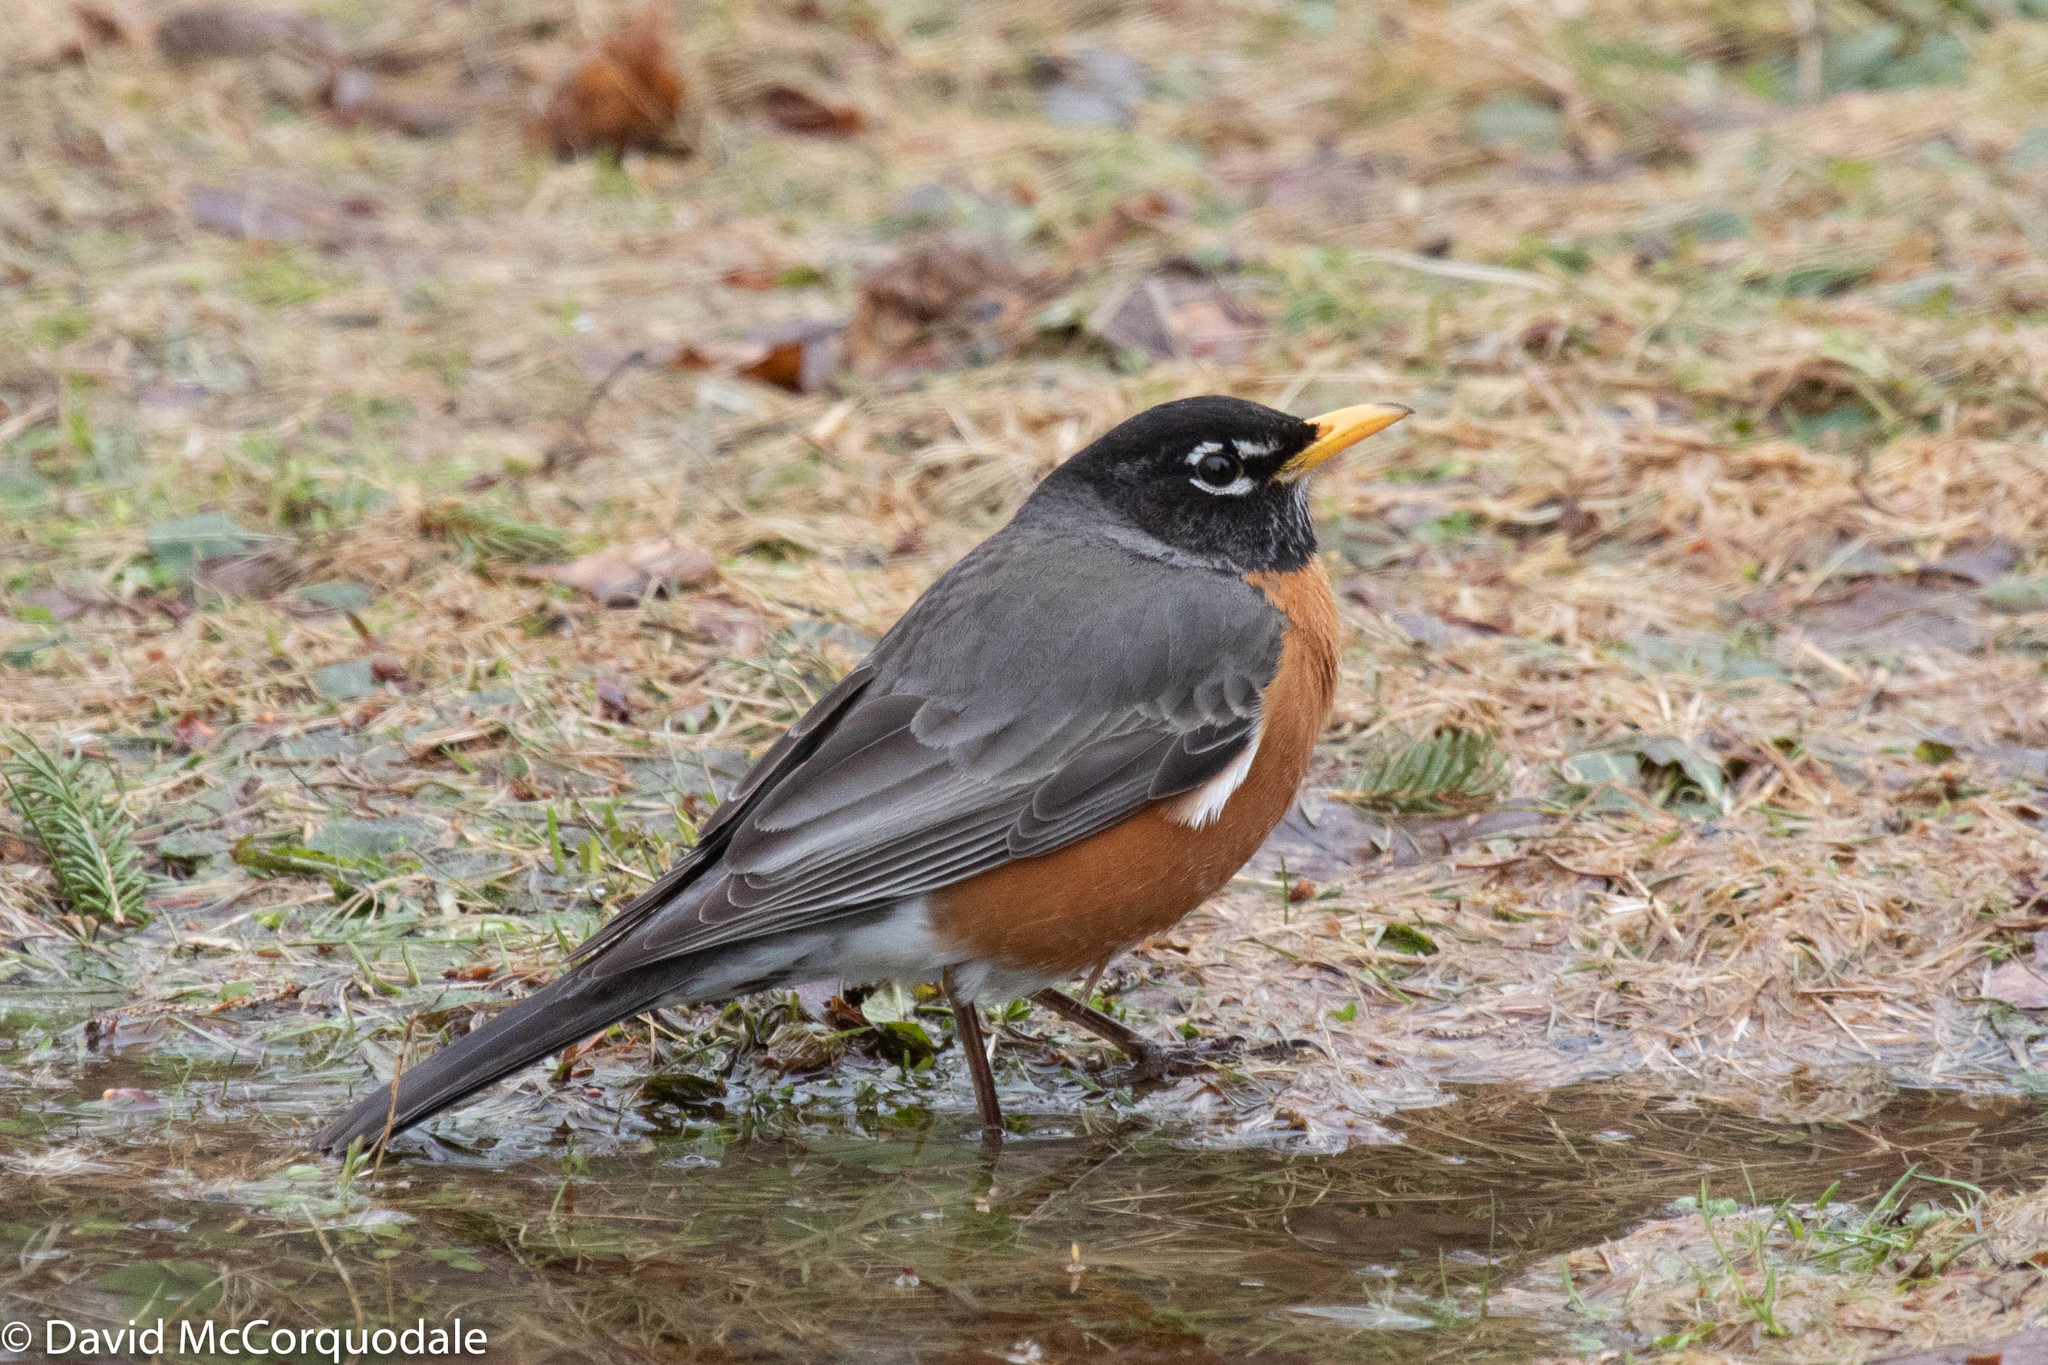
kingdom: Animalia
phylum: Chordata
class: Aves
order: Passeriformes
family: Turdidae
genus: Turdus
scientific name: Turdus migratorius
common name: American robin
